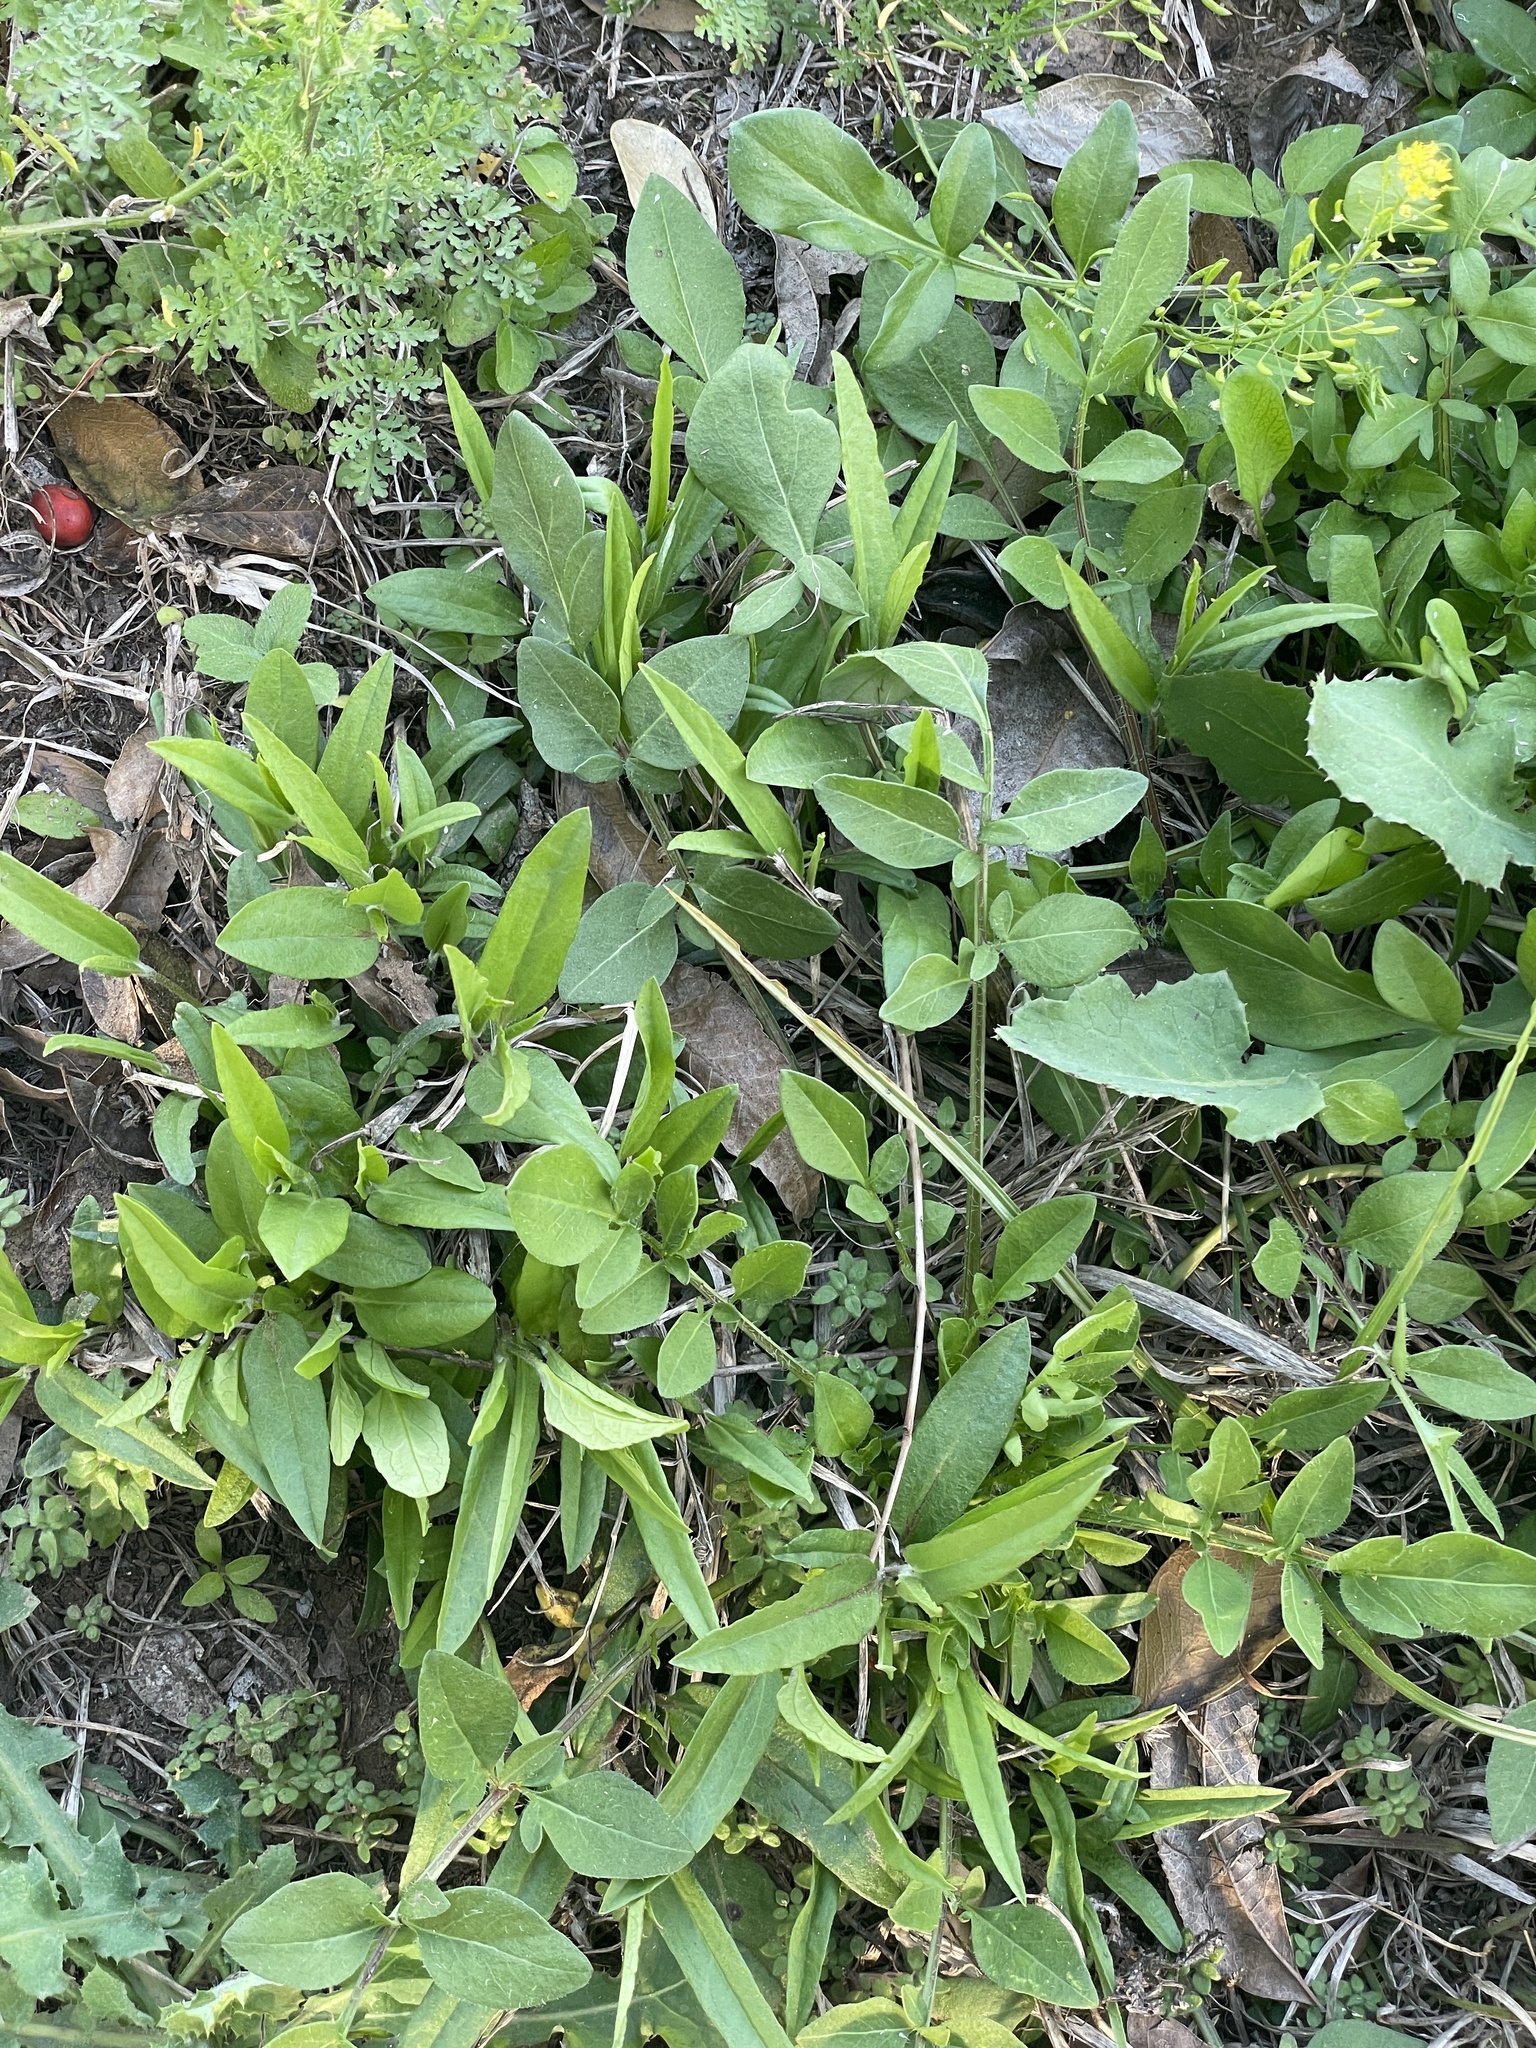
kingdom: Plantae
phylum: Tracheophyta
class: Magnoliopsida
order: Piperales
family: Aristolochiaceae
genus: Aristolochia
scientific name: Aristolochia erecta
